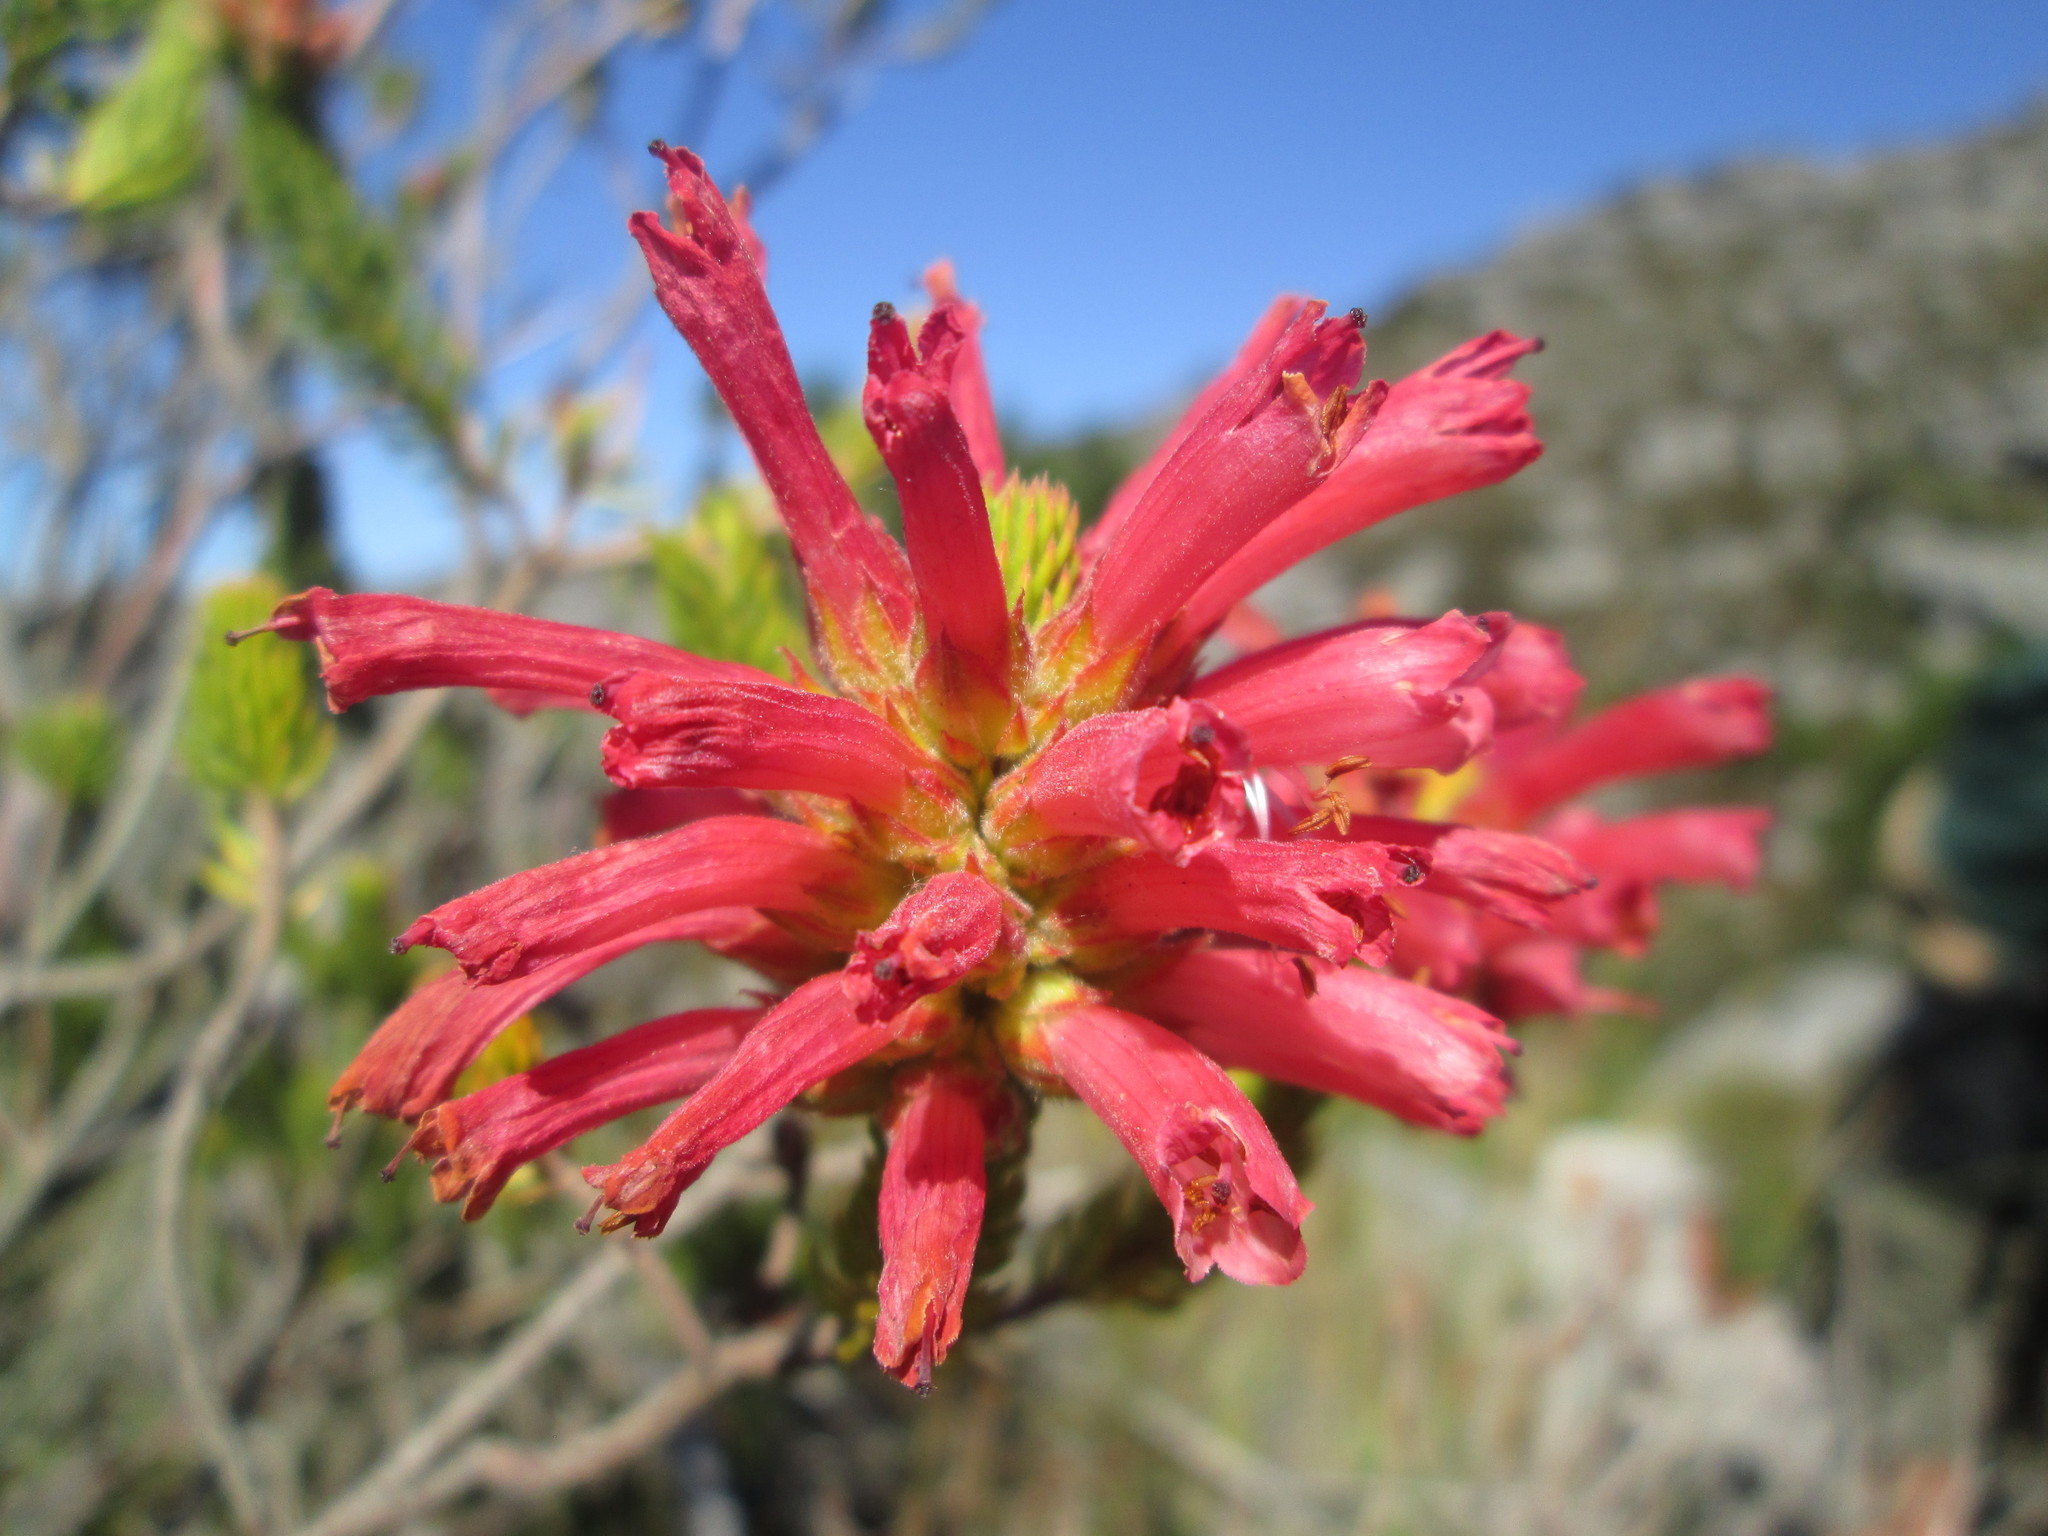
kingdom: Plantae
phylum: Tracheophyta
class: Magnoliopsida
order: Ericales
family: Ericaceae
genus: Erica
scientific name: Erica abietina
